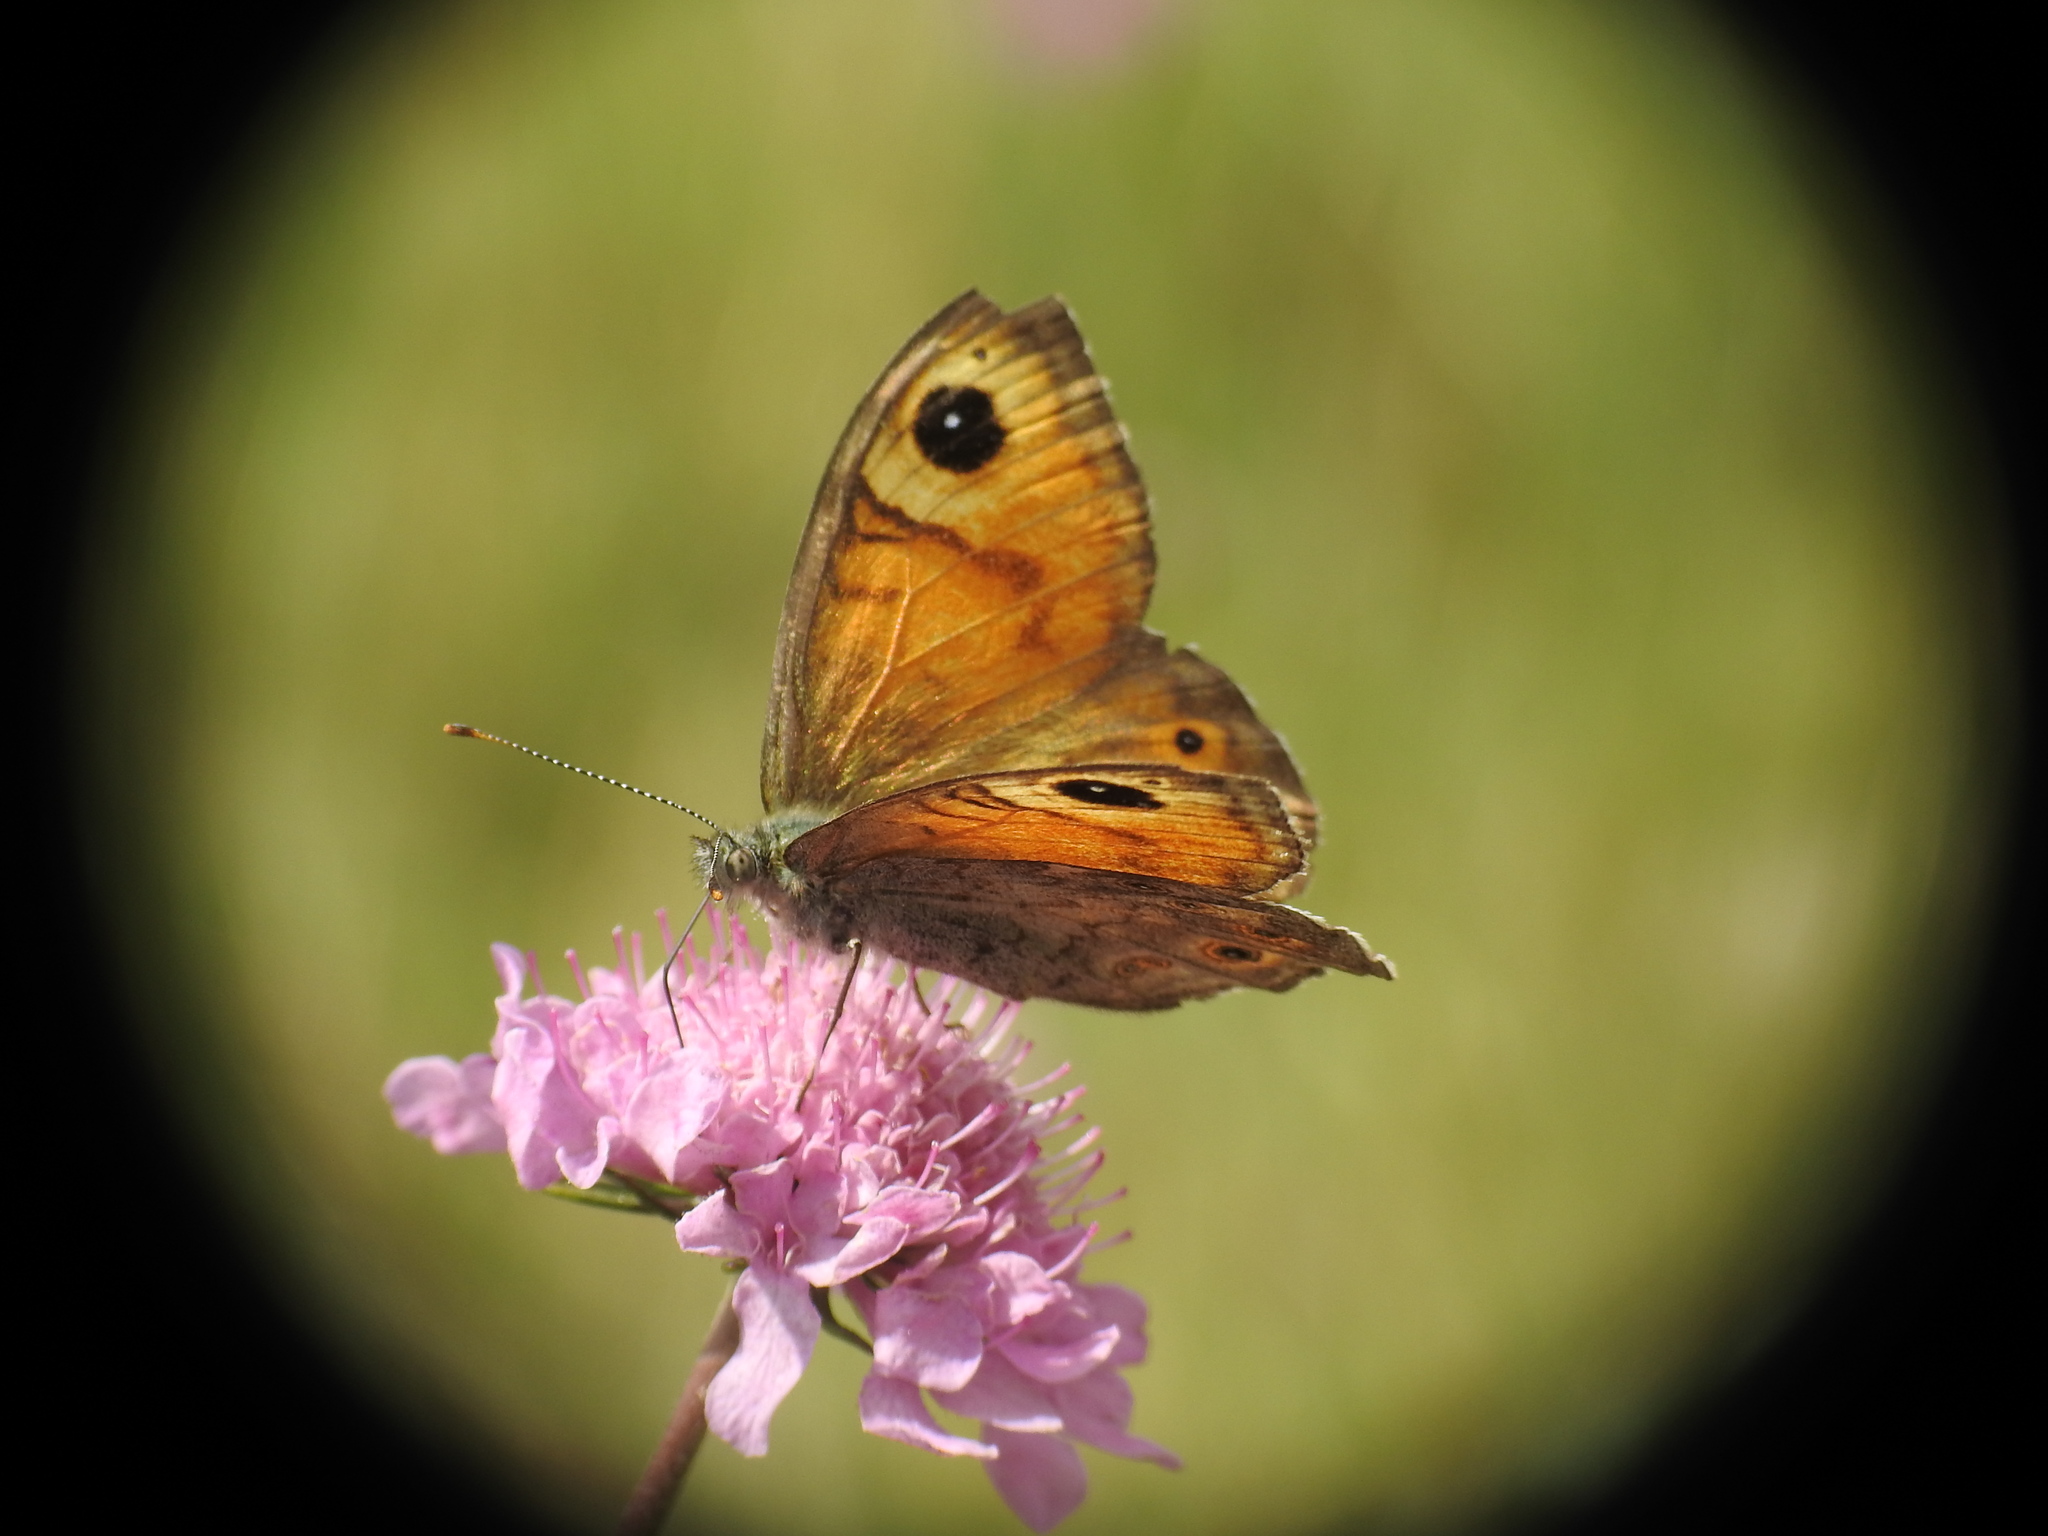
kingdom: Animalia
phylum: Arthropoda
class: Insecta
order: Lepidoptera
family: Nymphalidae
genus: Pararge
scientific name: Pararge Lasiommata maera
